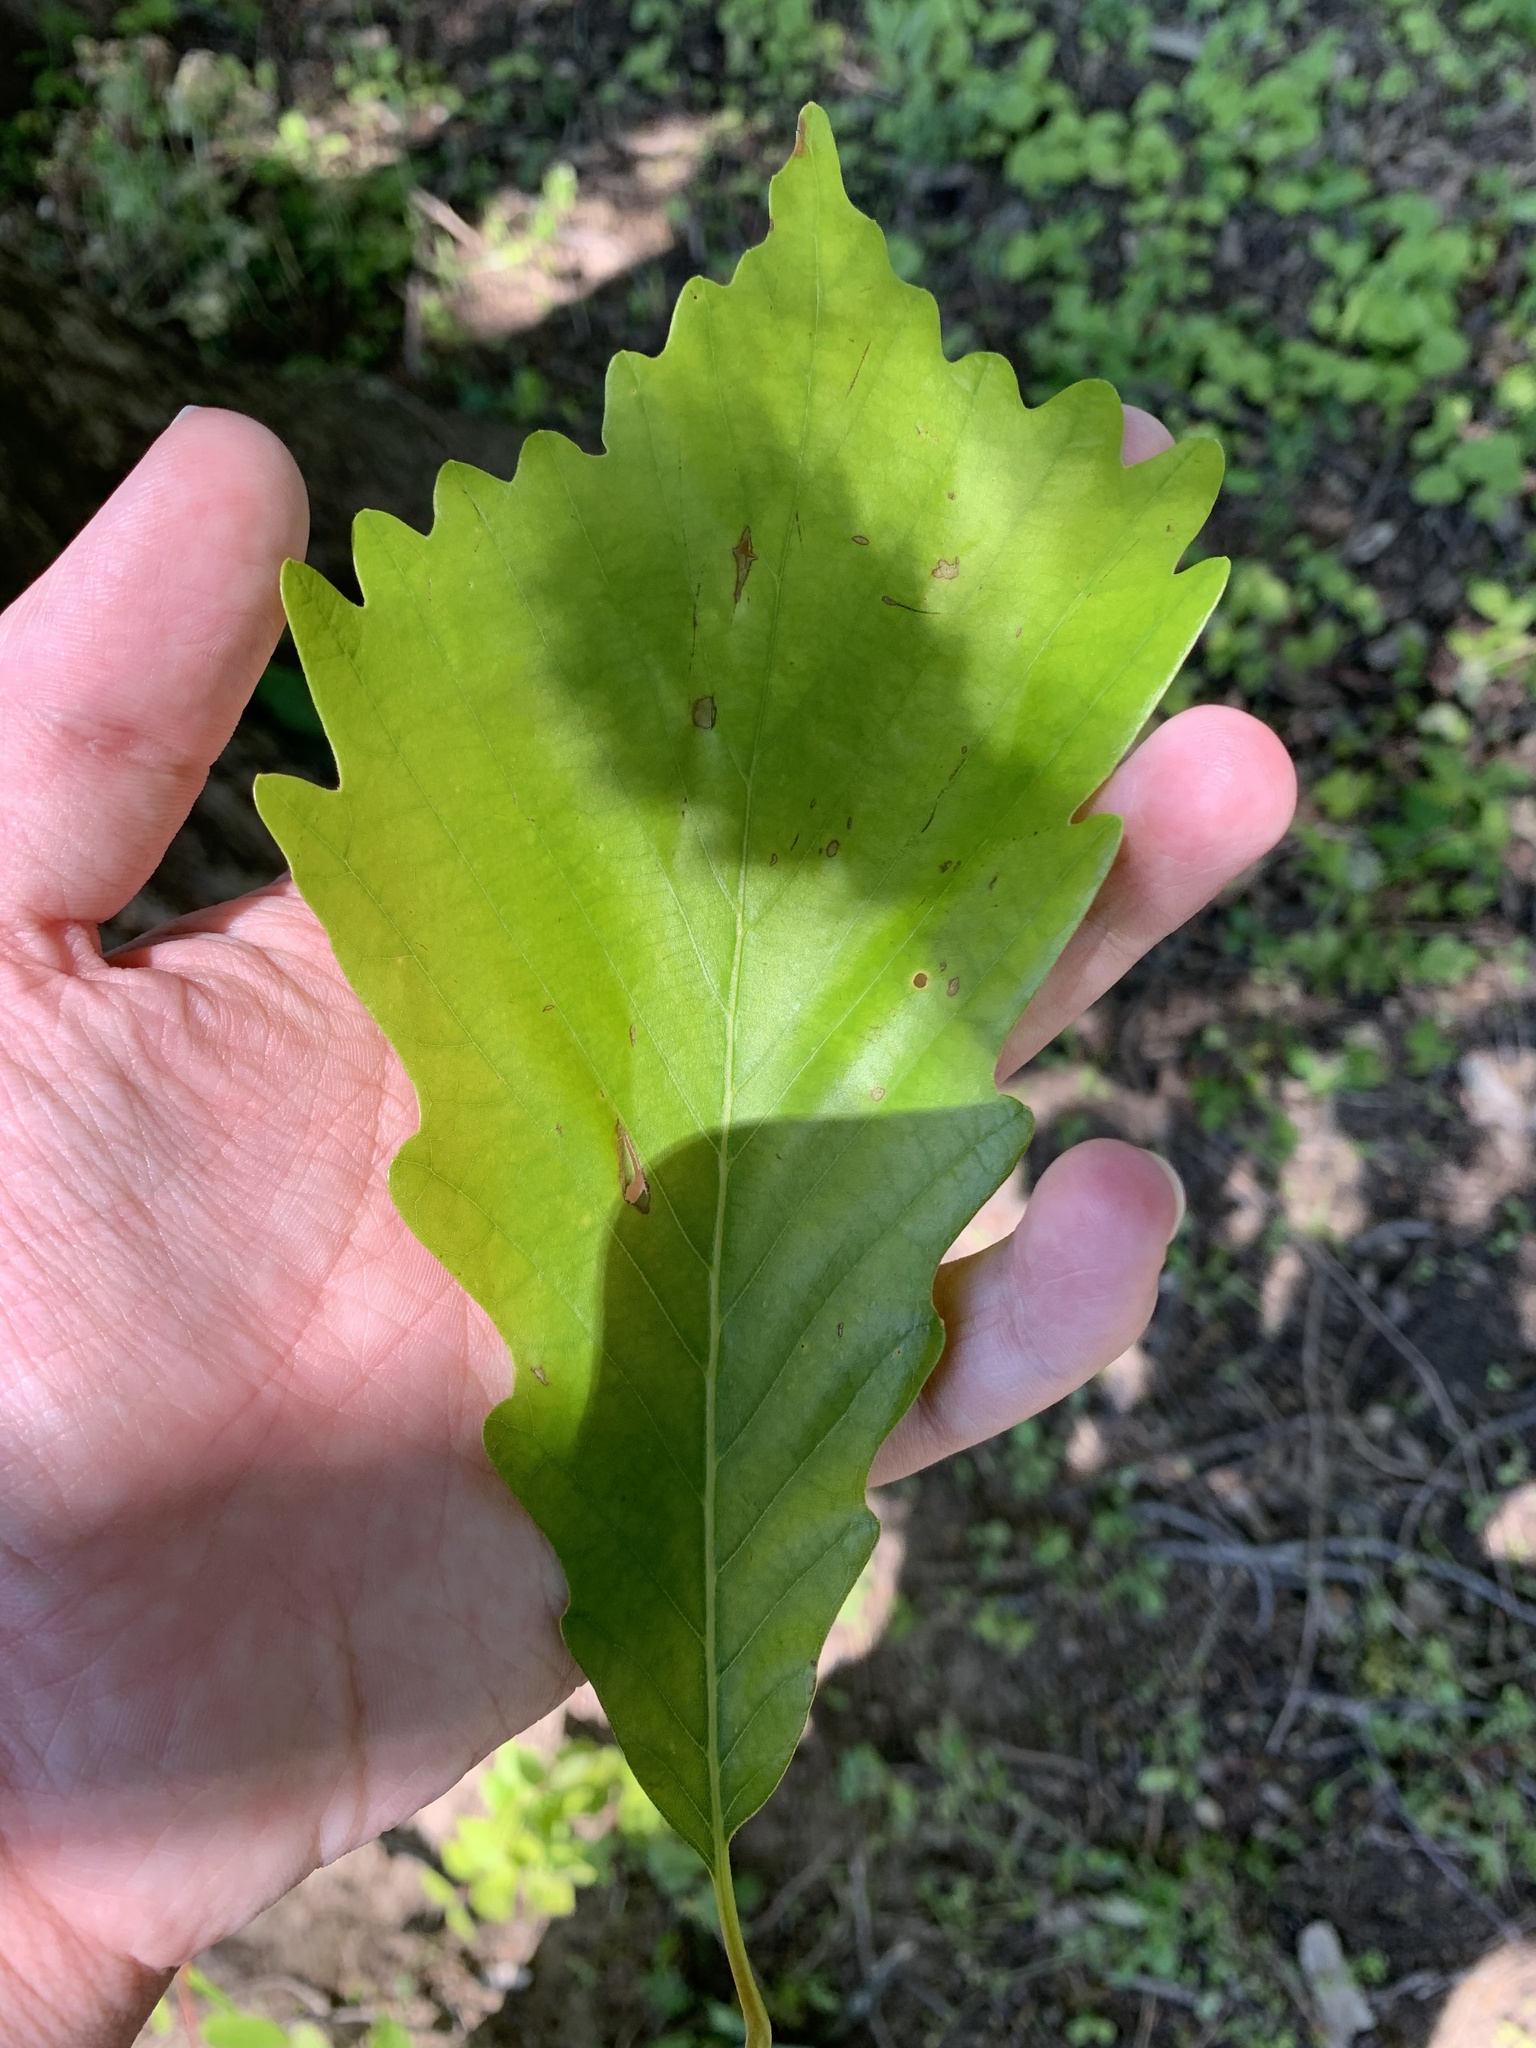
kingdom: Plantae
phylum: Tracheophyta
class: Magnoliopsida
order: Fagales
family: Fagaceae
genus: Quercus
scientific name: Quercus montana
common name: Chestnut oak
